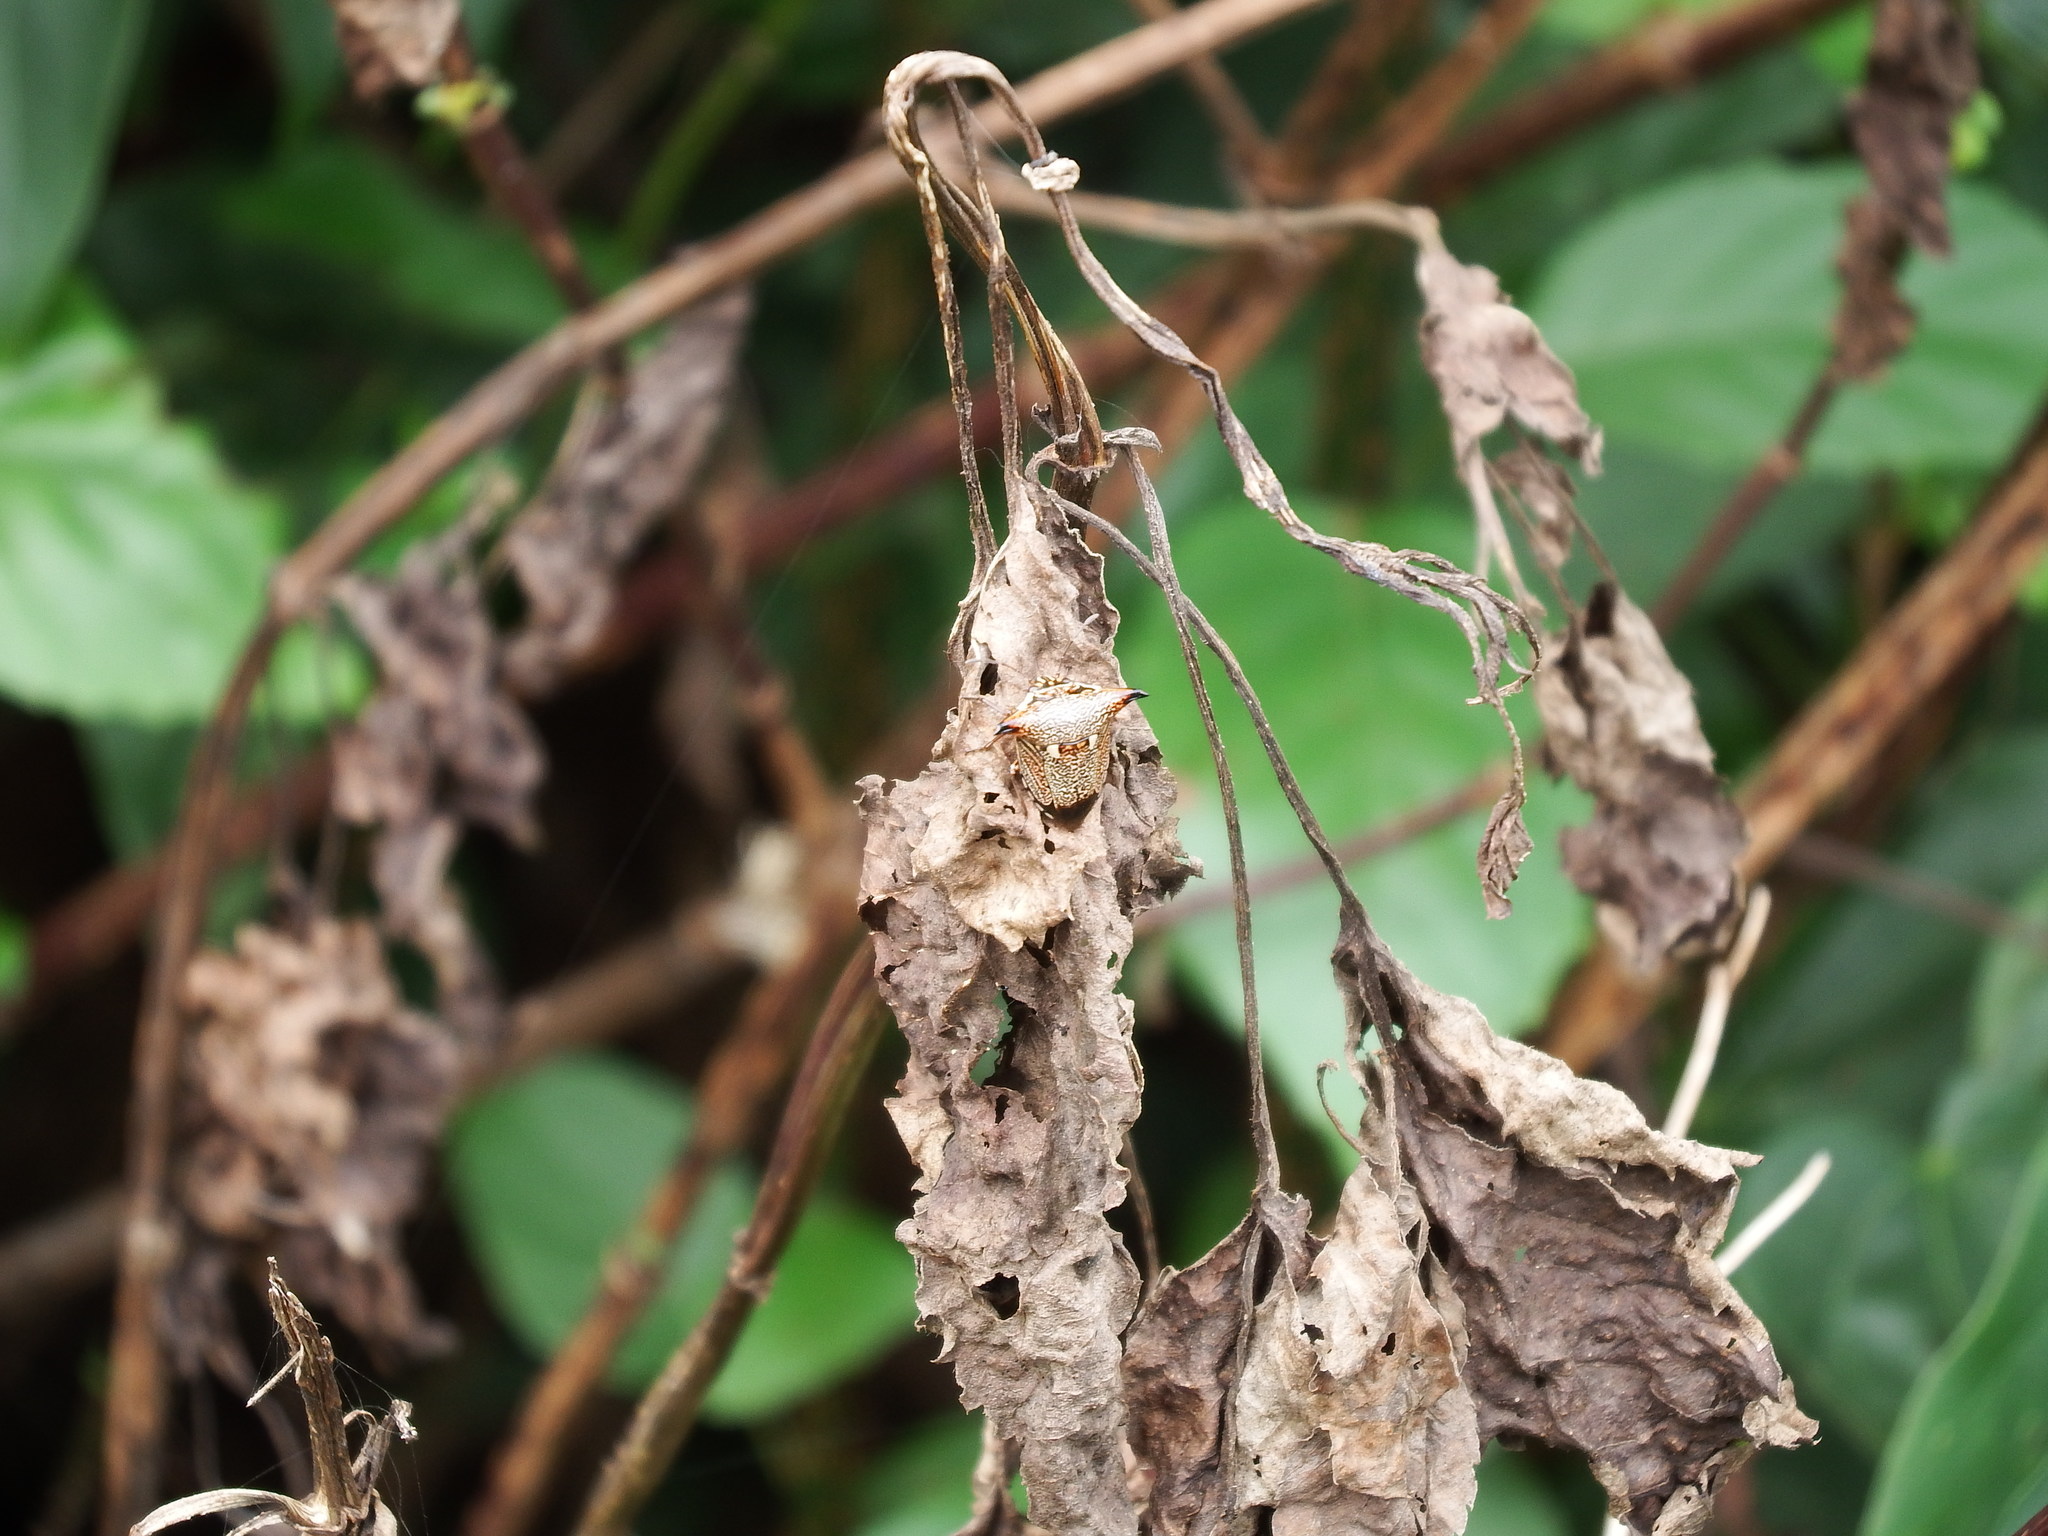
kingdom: Animalia
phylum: Arthropoda
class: Insecta
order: Hemiptera
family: Pentatomidae
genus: Alcimocoris
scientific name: Alcimocoris japonersis
